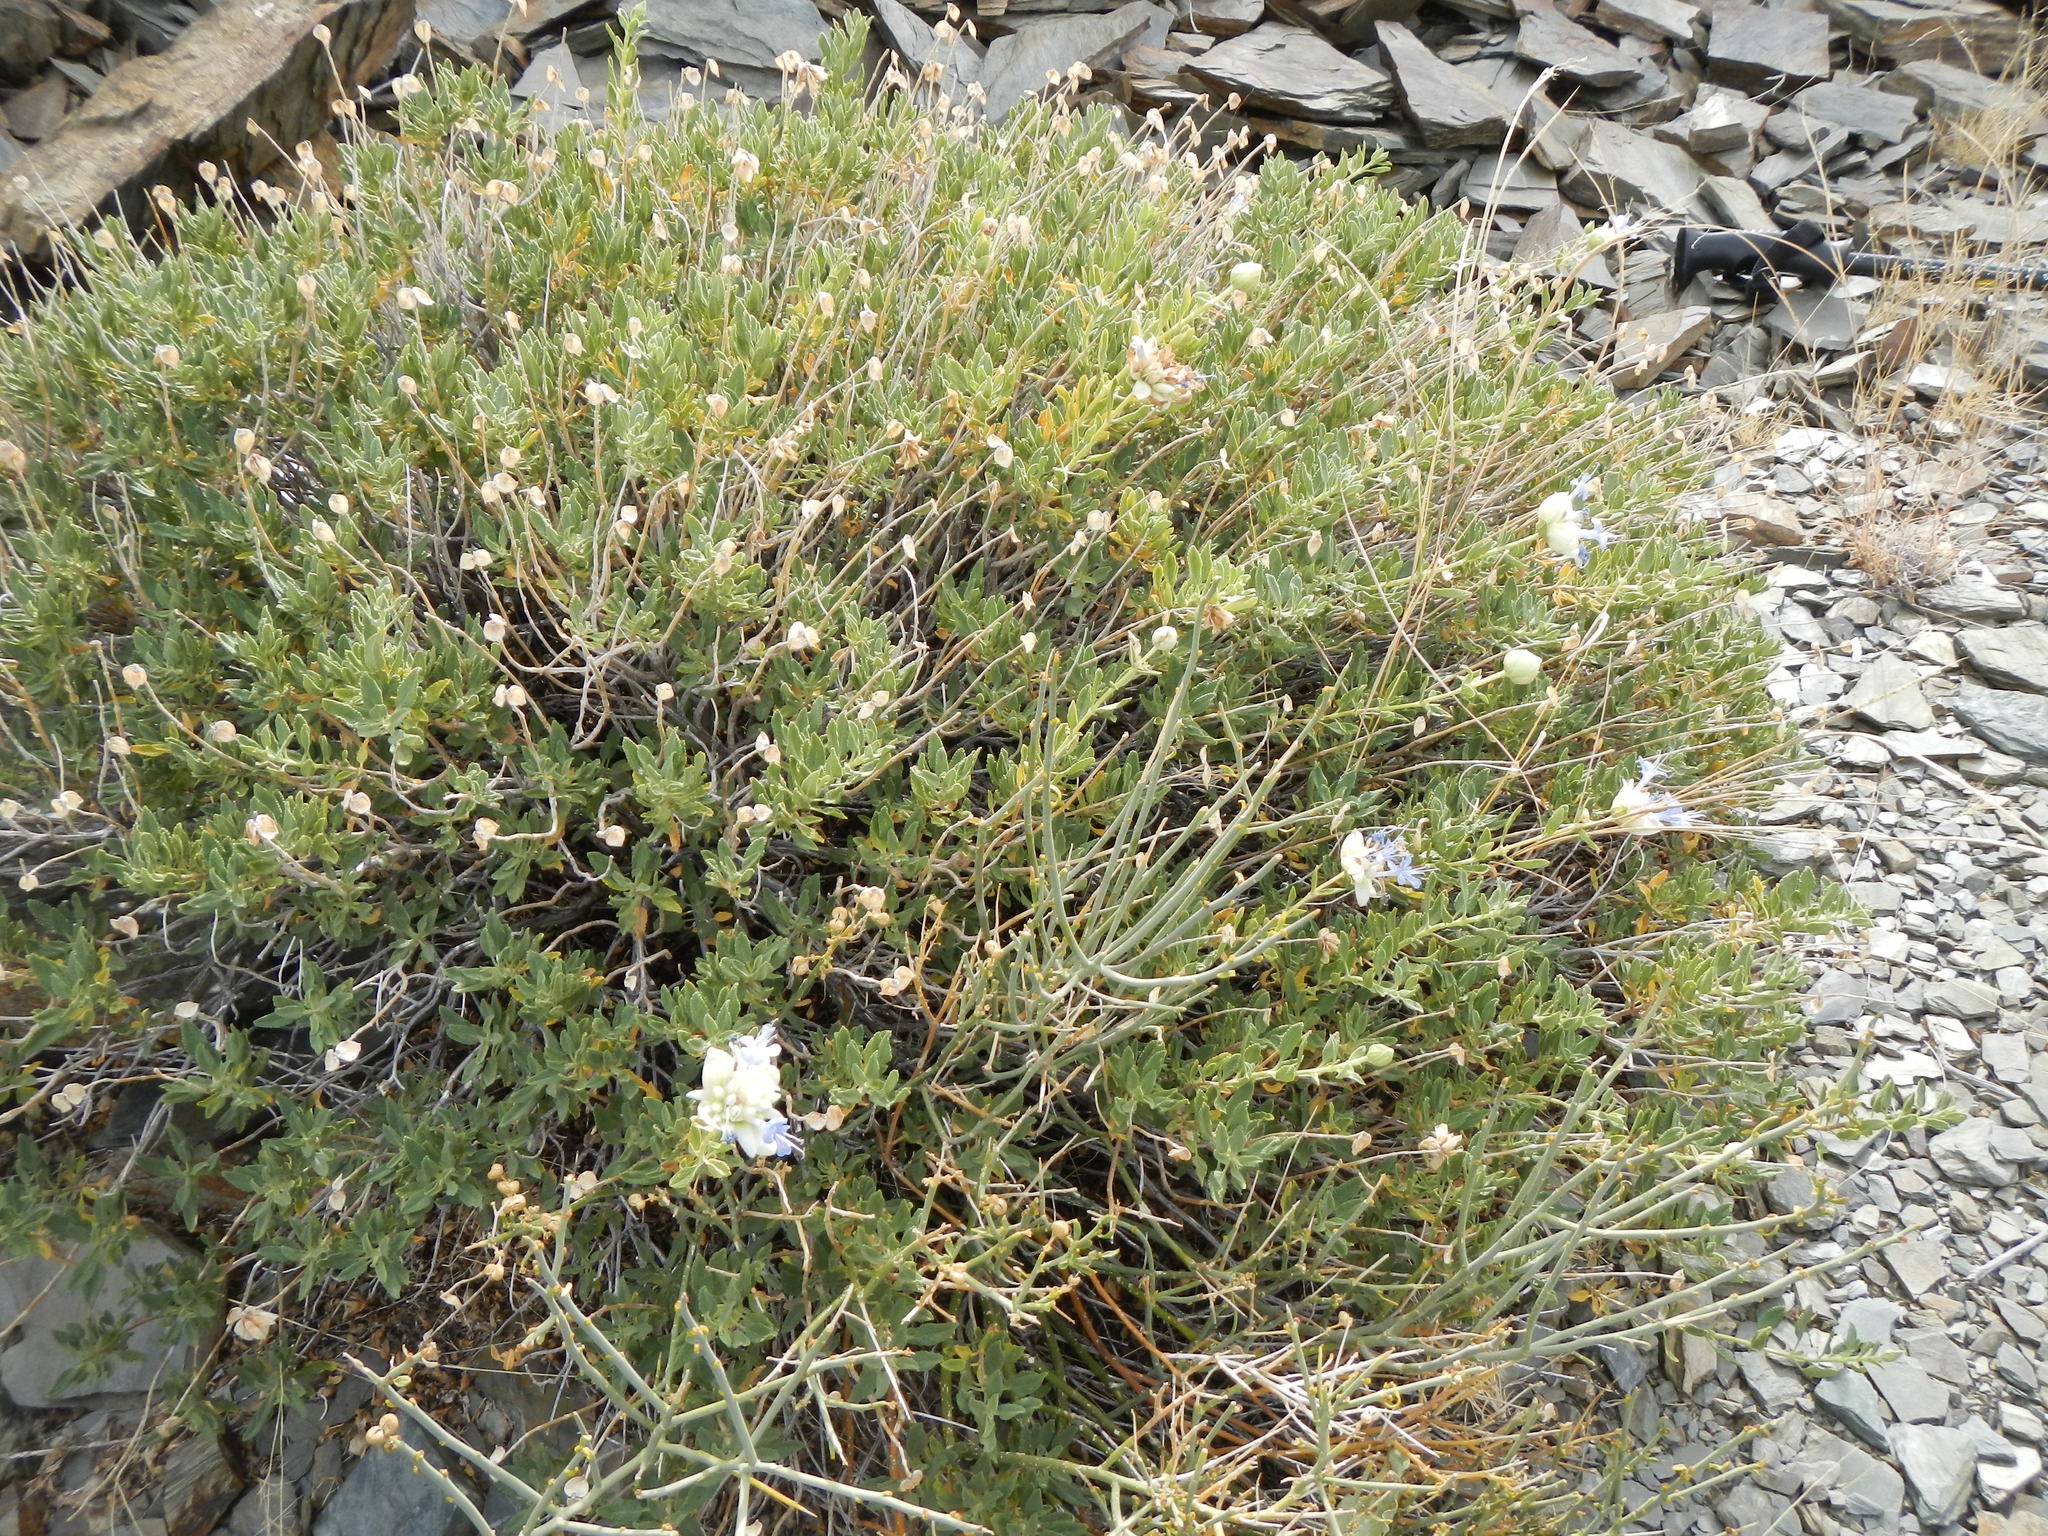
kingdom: Plantae
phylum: Tracheophyta
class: Magnoliopsida
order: Lamiales
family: Lamiaceae
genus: Salvia
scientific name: Salvia mohavensis
